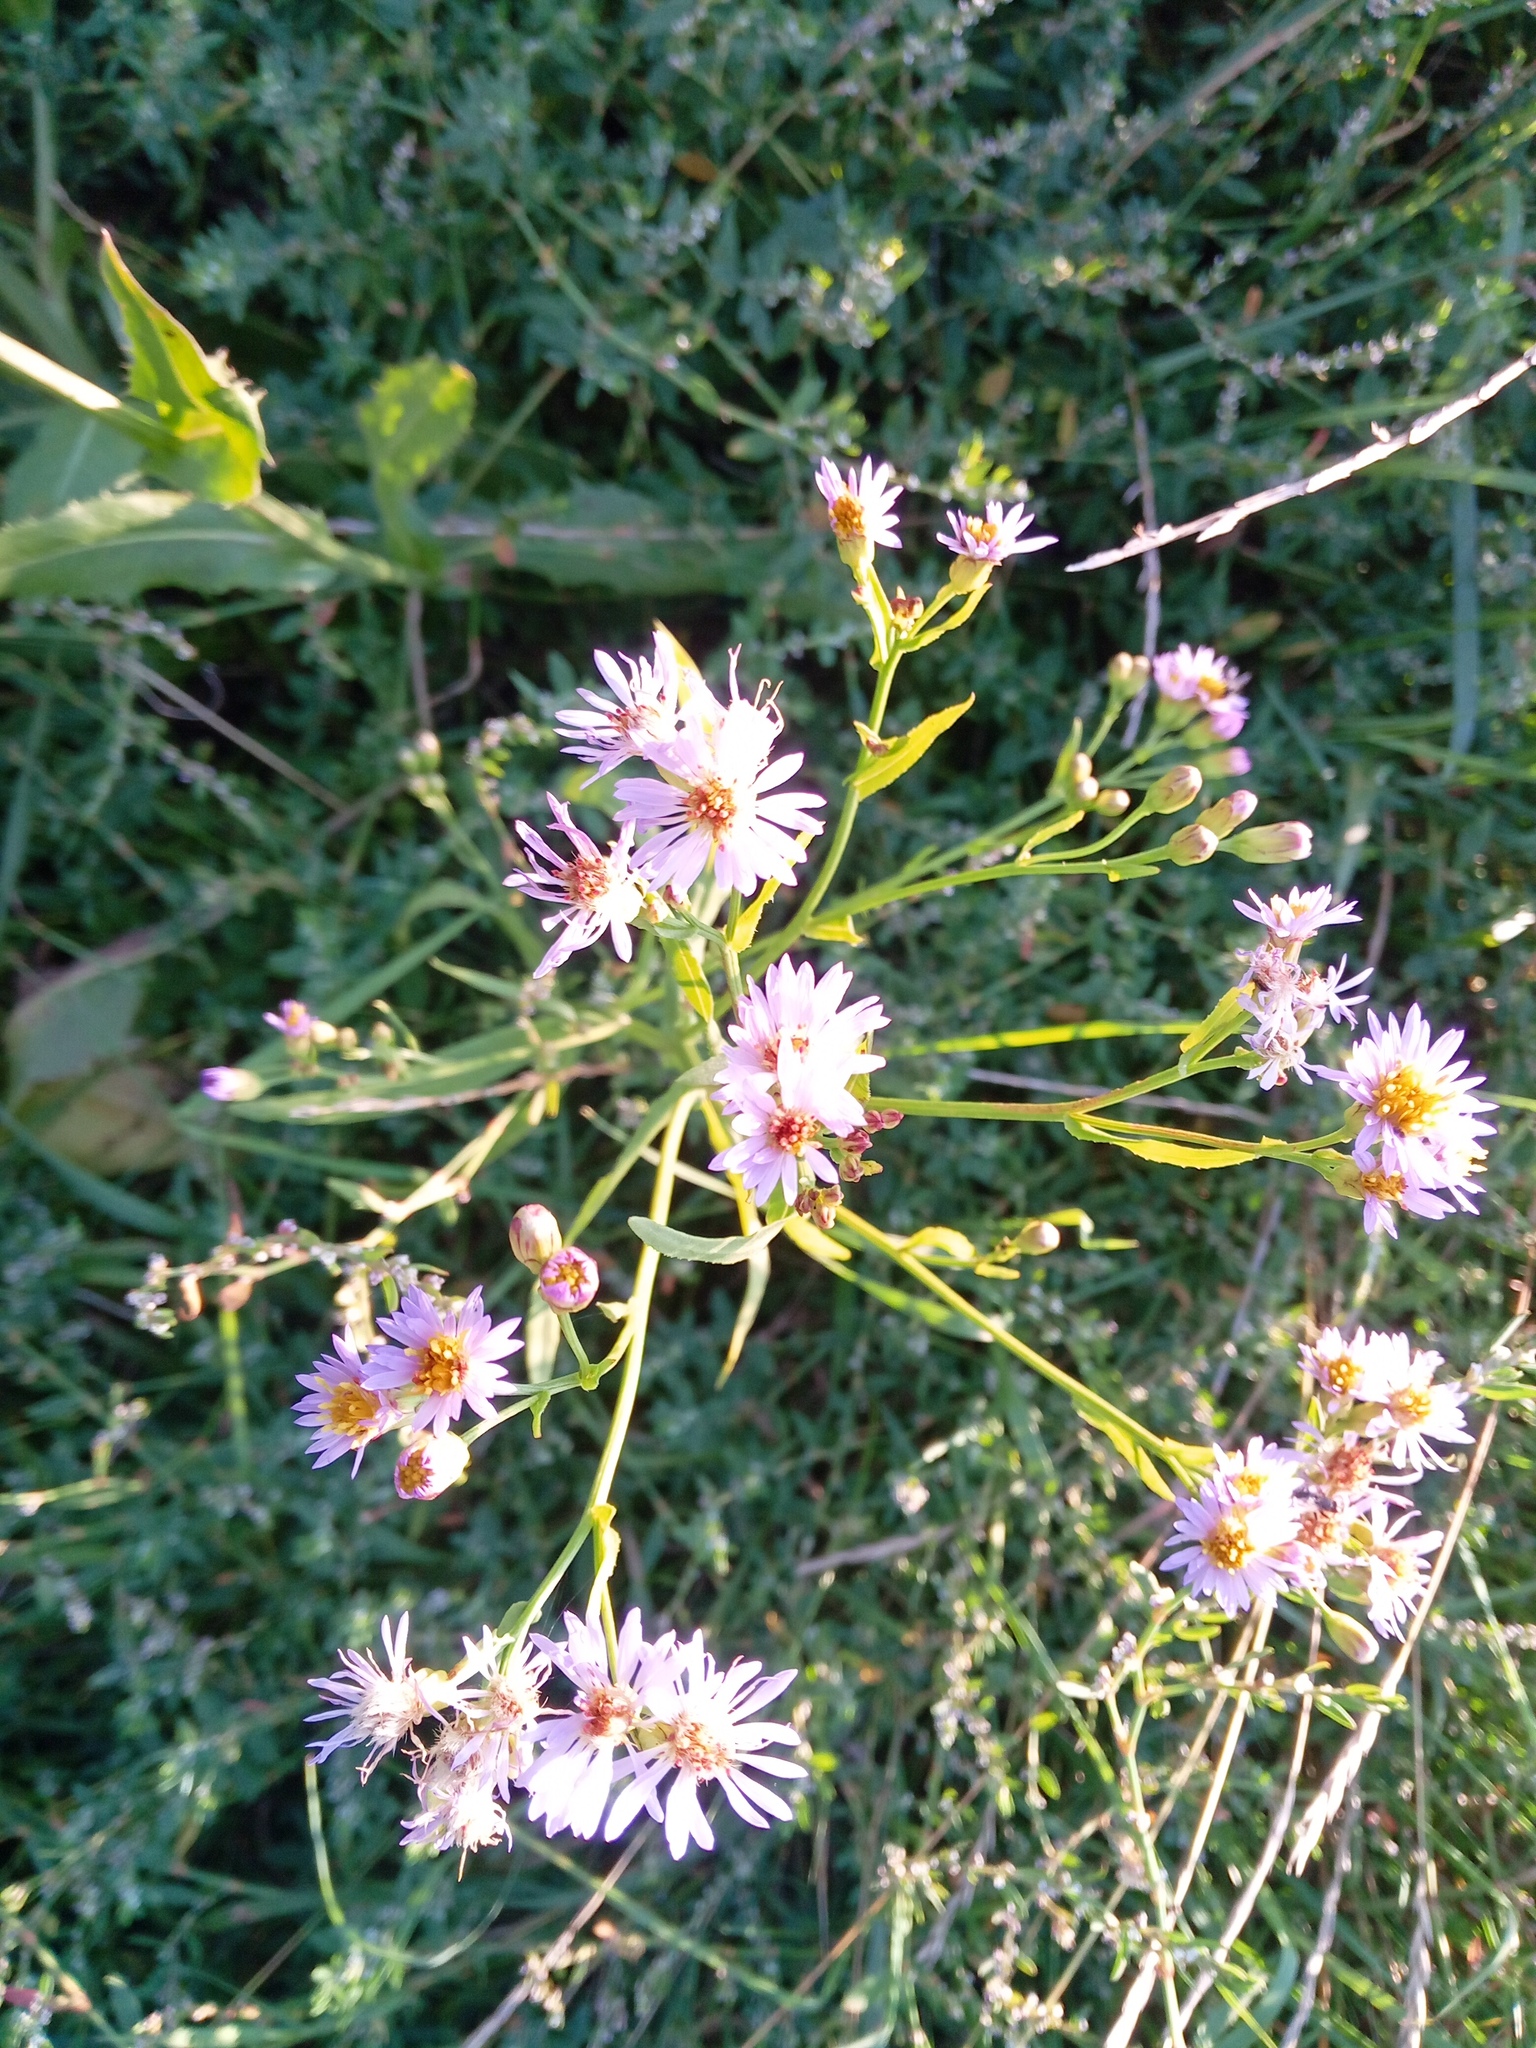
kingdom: Plantae
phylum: Tracheophyta
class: Magnoliopsida
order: Asterales
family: Asteraceae
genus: Tripolium
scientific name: Tripolium pannonicum
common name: Sea aster
